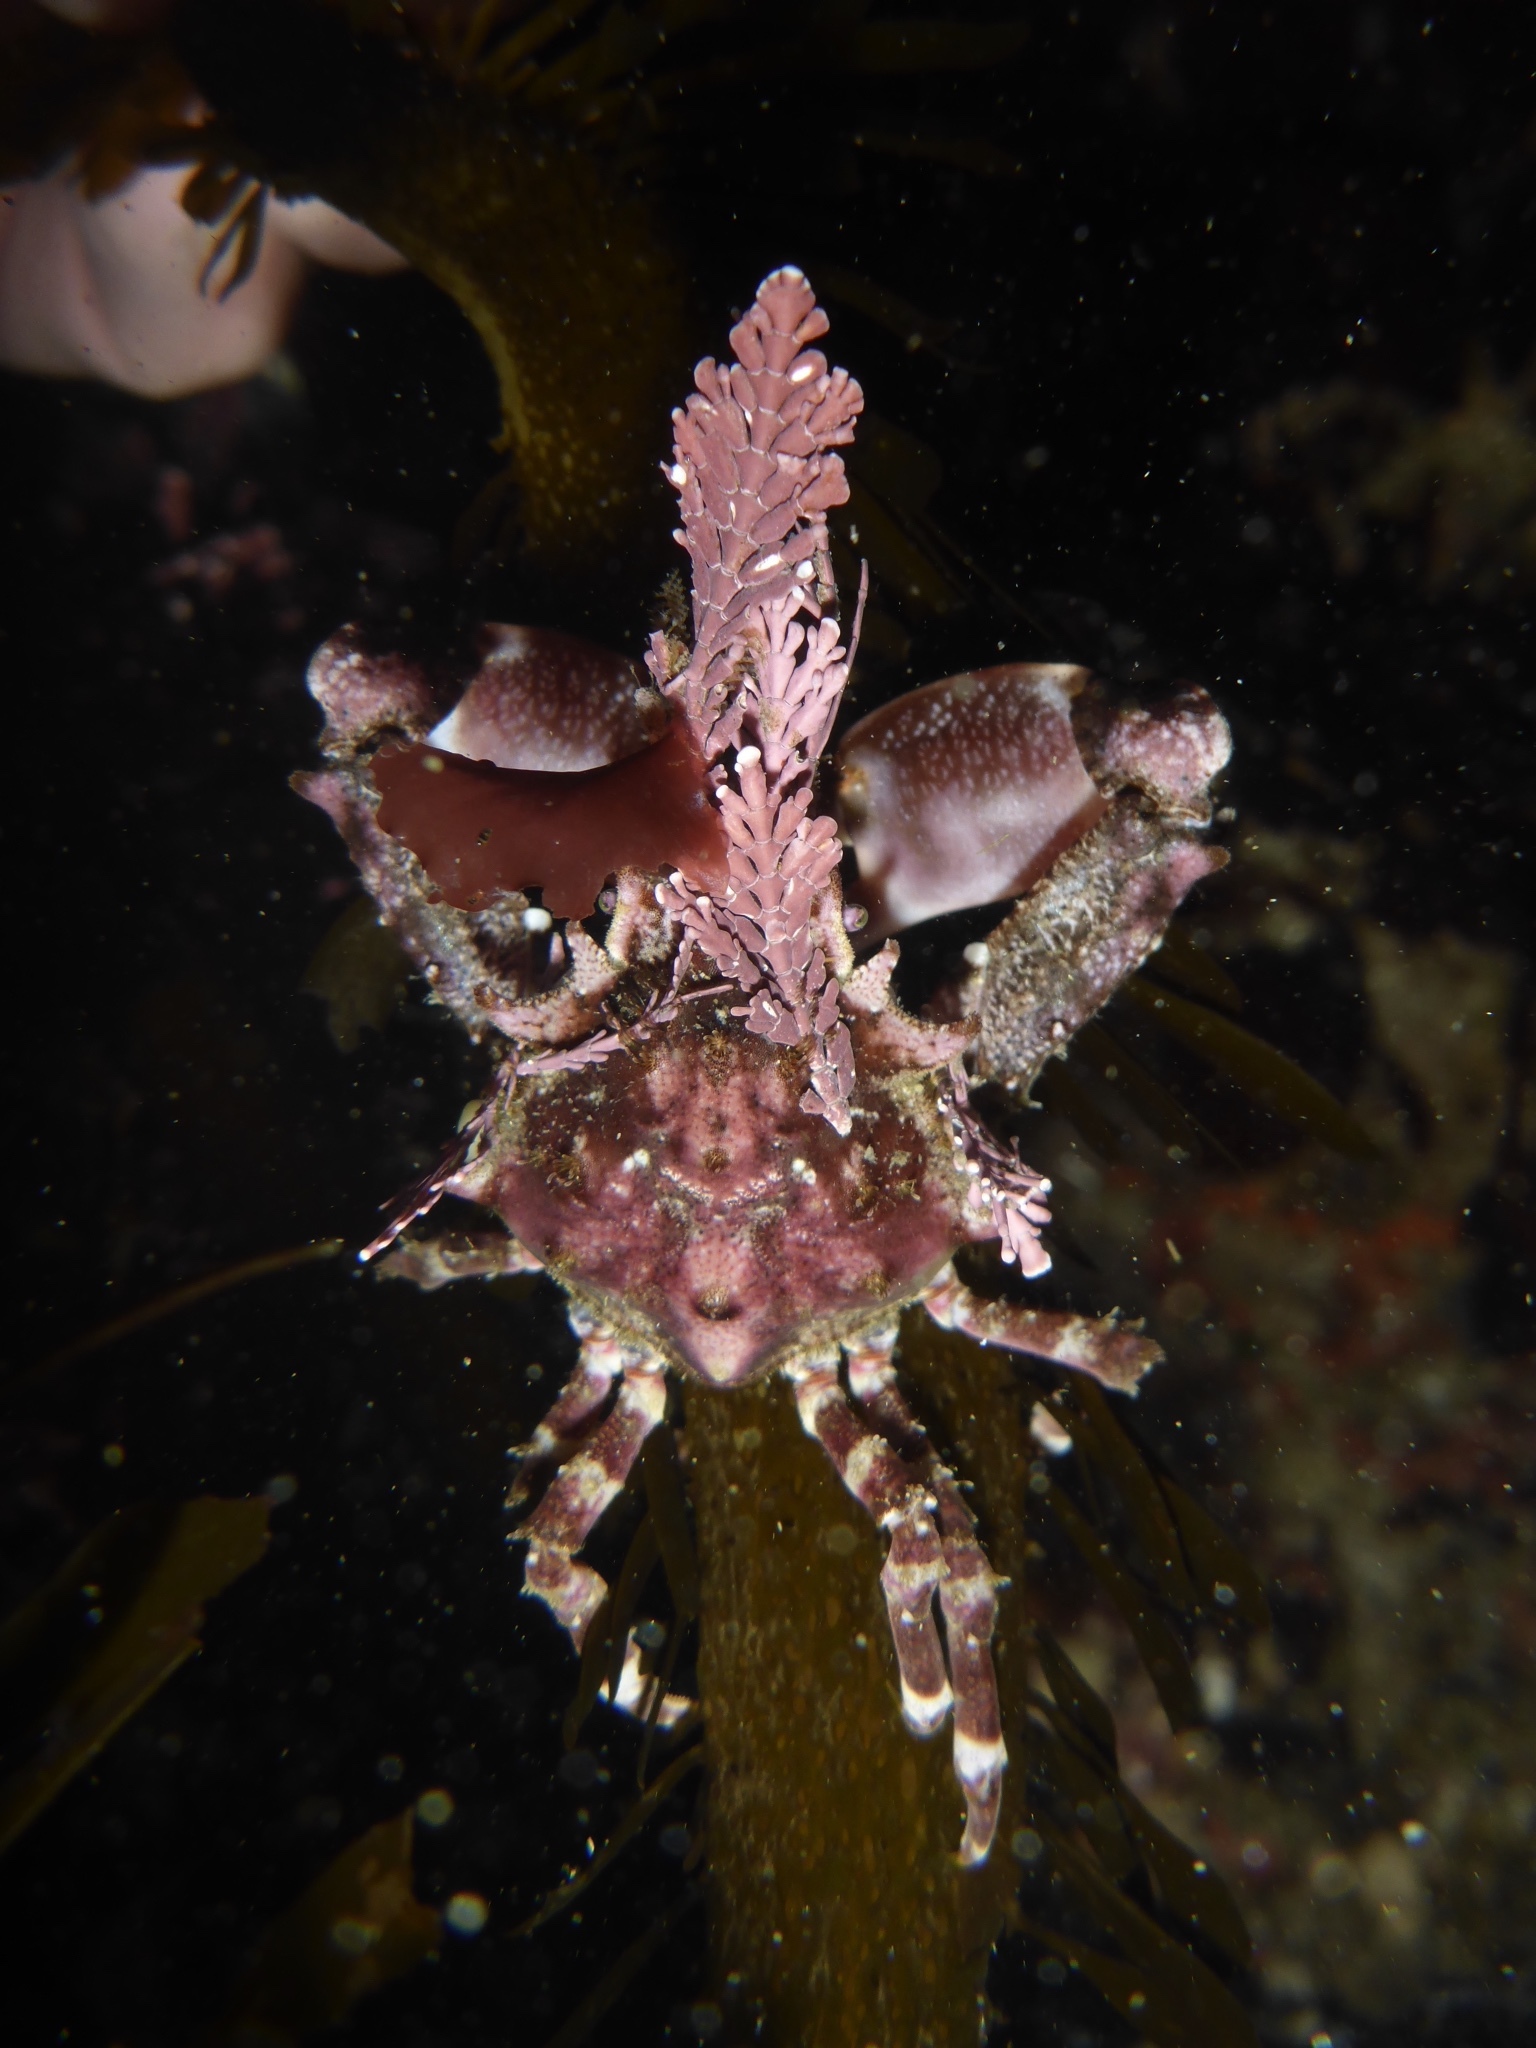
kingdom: Animalia
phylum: Arthropoda
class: Malacostraca
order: Decapoda
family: Epialtidae
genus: Pugettia
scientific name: Pugettia richii
